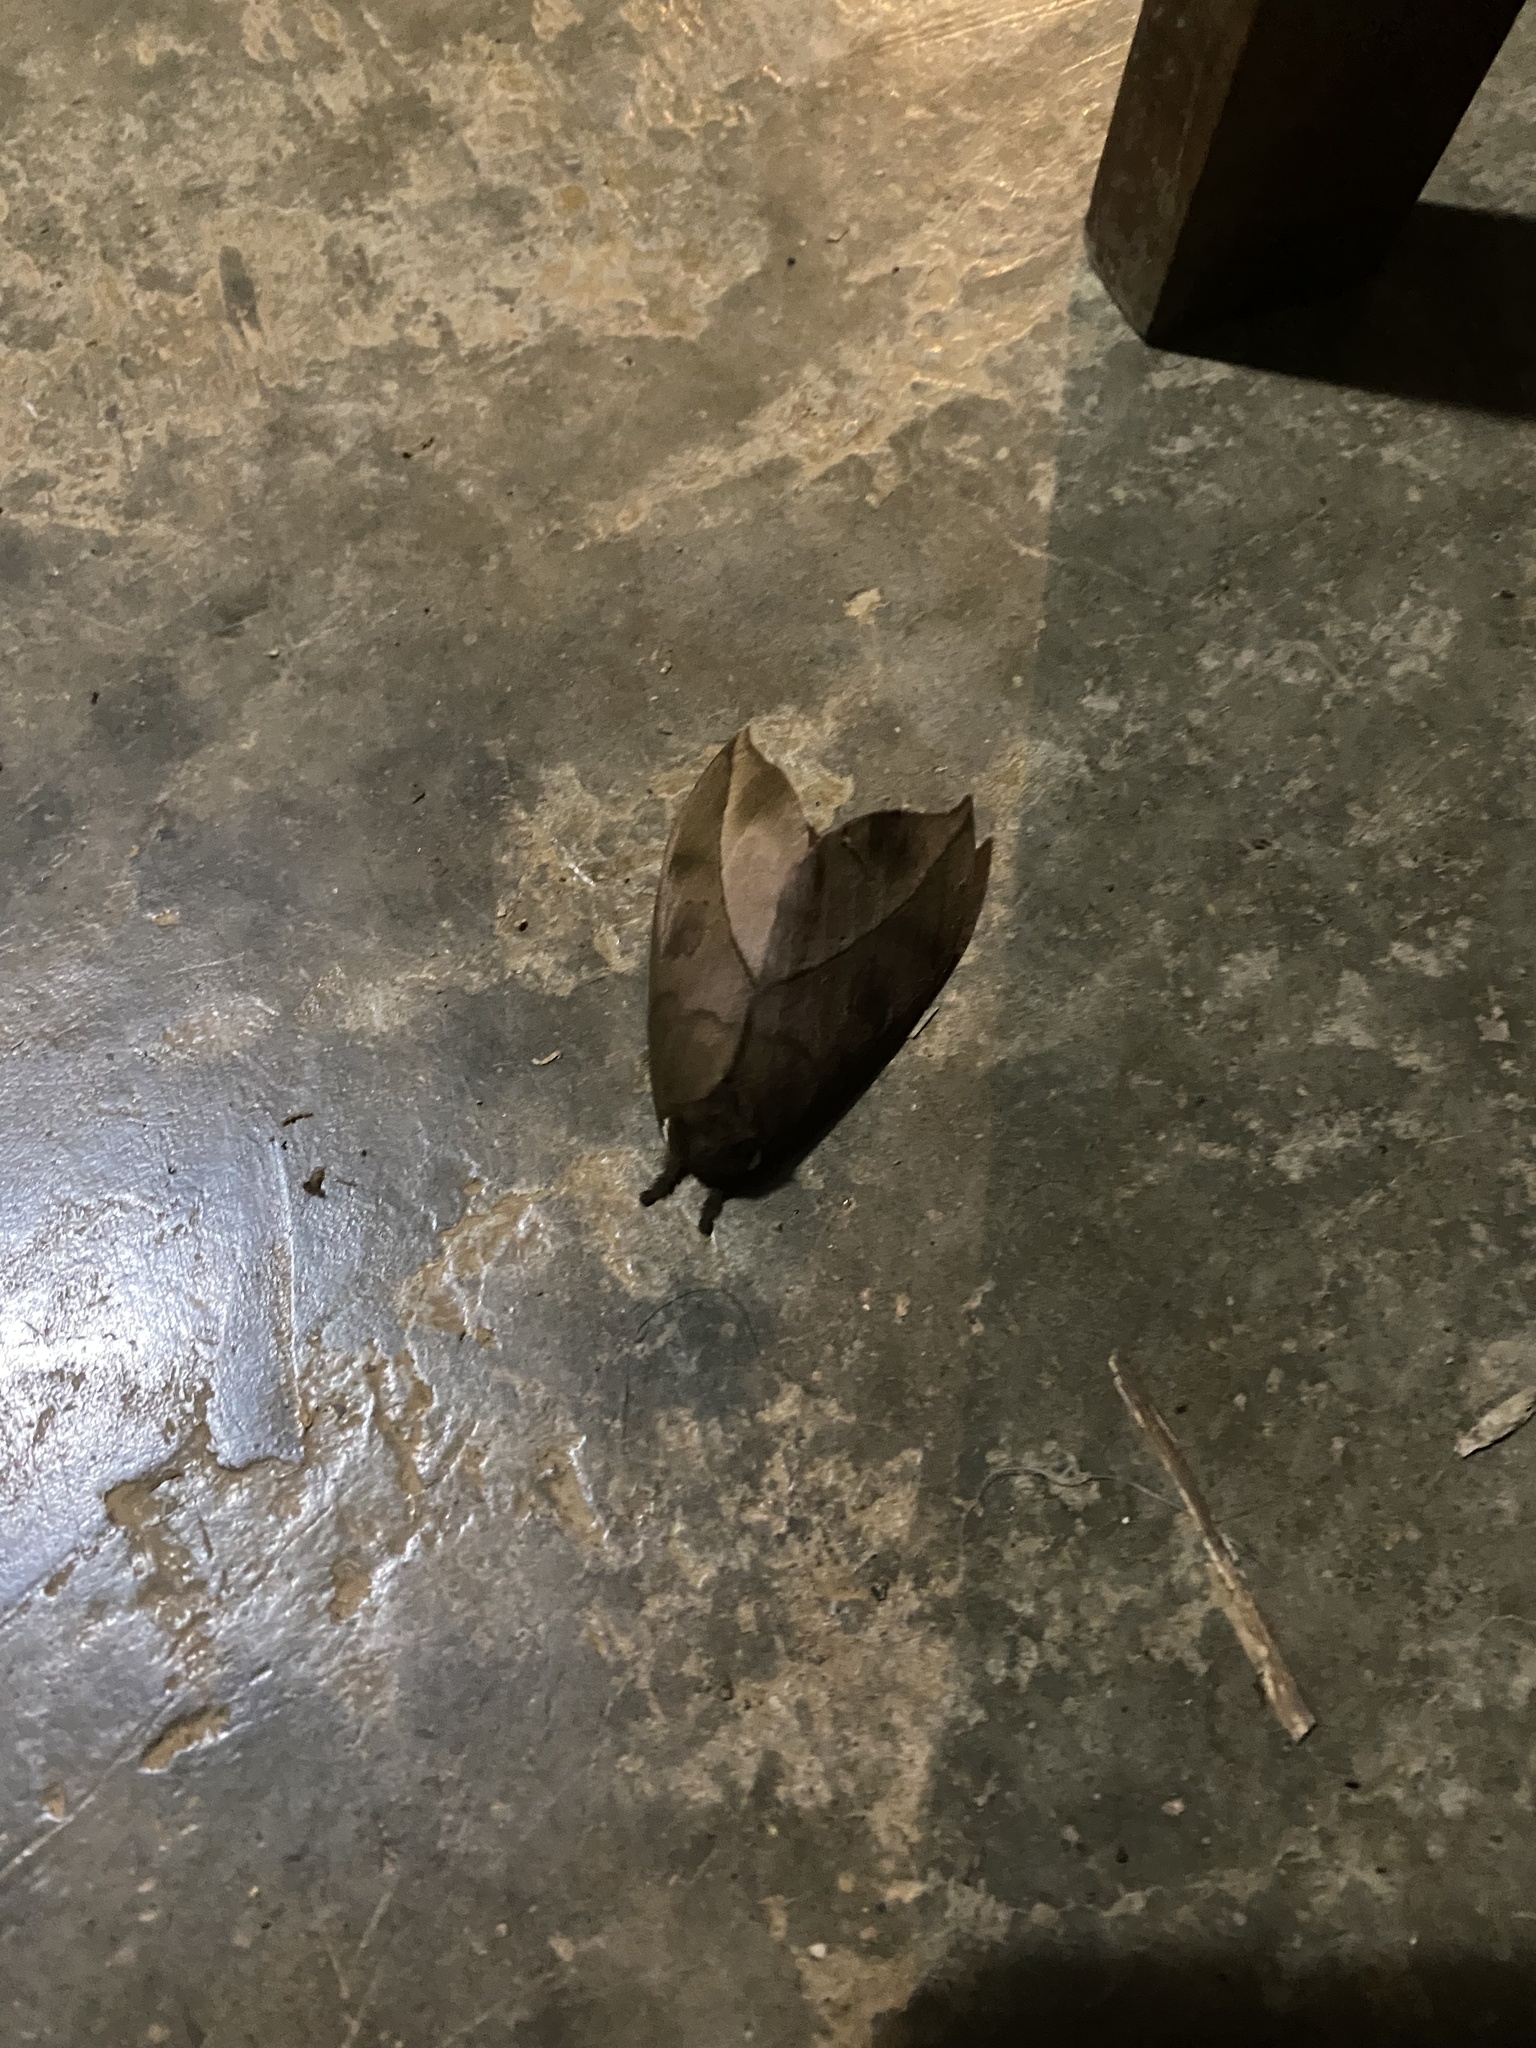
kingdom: Animalia
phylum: Arthropoda
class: Insecta
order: Lepidoptera
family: Saturniidae
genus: Automeris
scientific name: Automeris zugana
